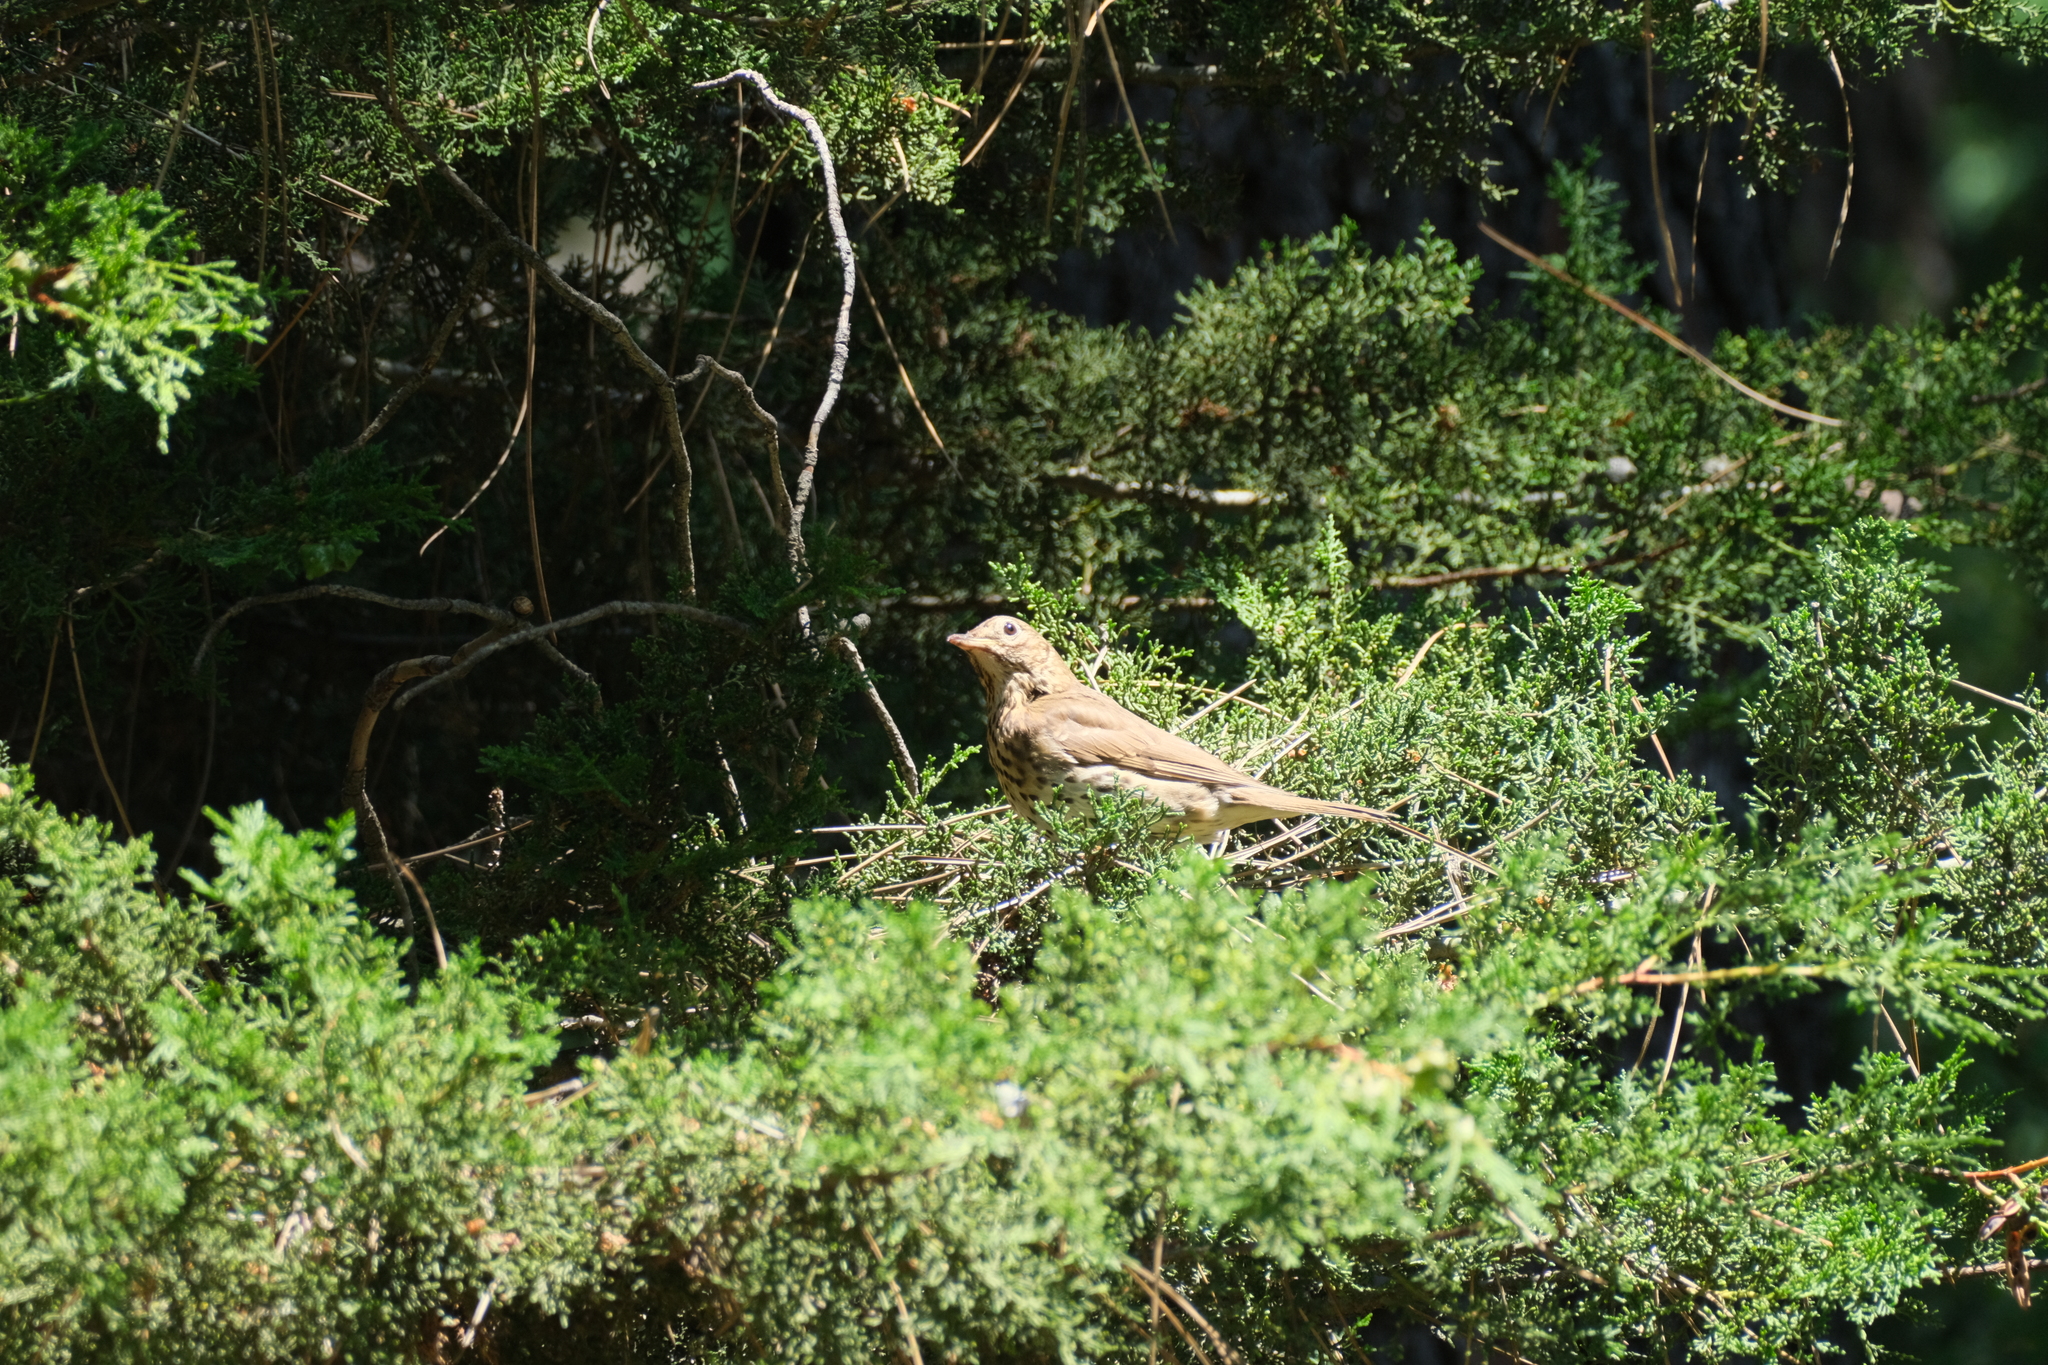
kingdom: Animalia
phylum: Chordata
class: Aves
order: Passeriformes
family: Turdidae
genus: Turdus
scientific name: Turdus philomelos
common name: Song thrush
